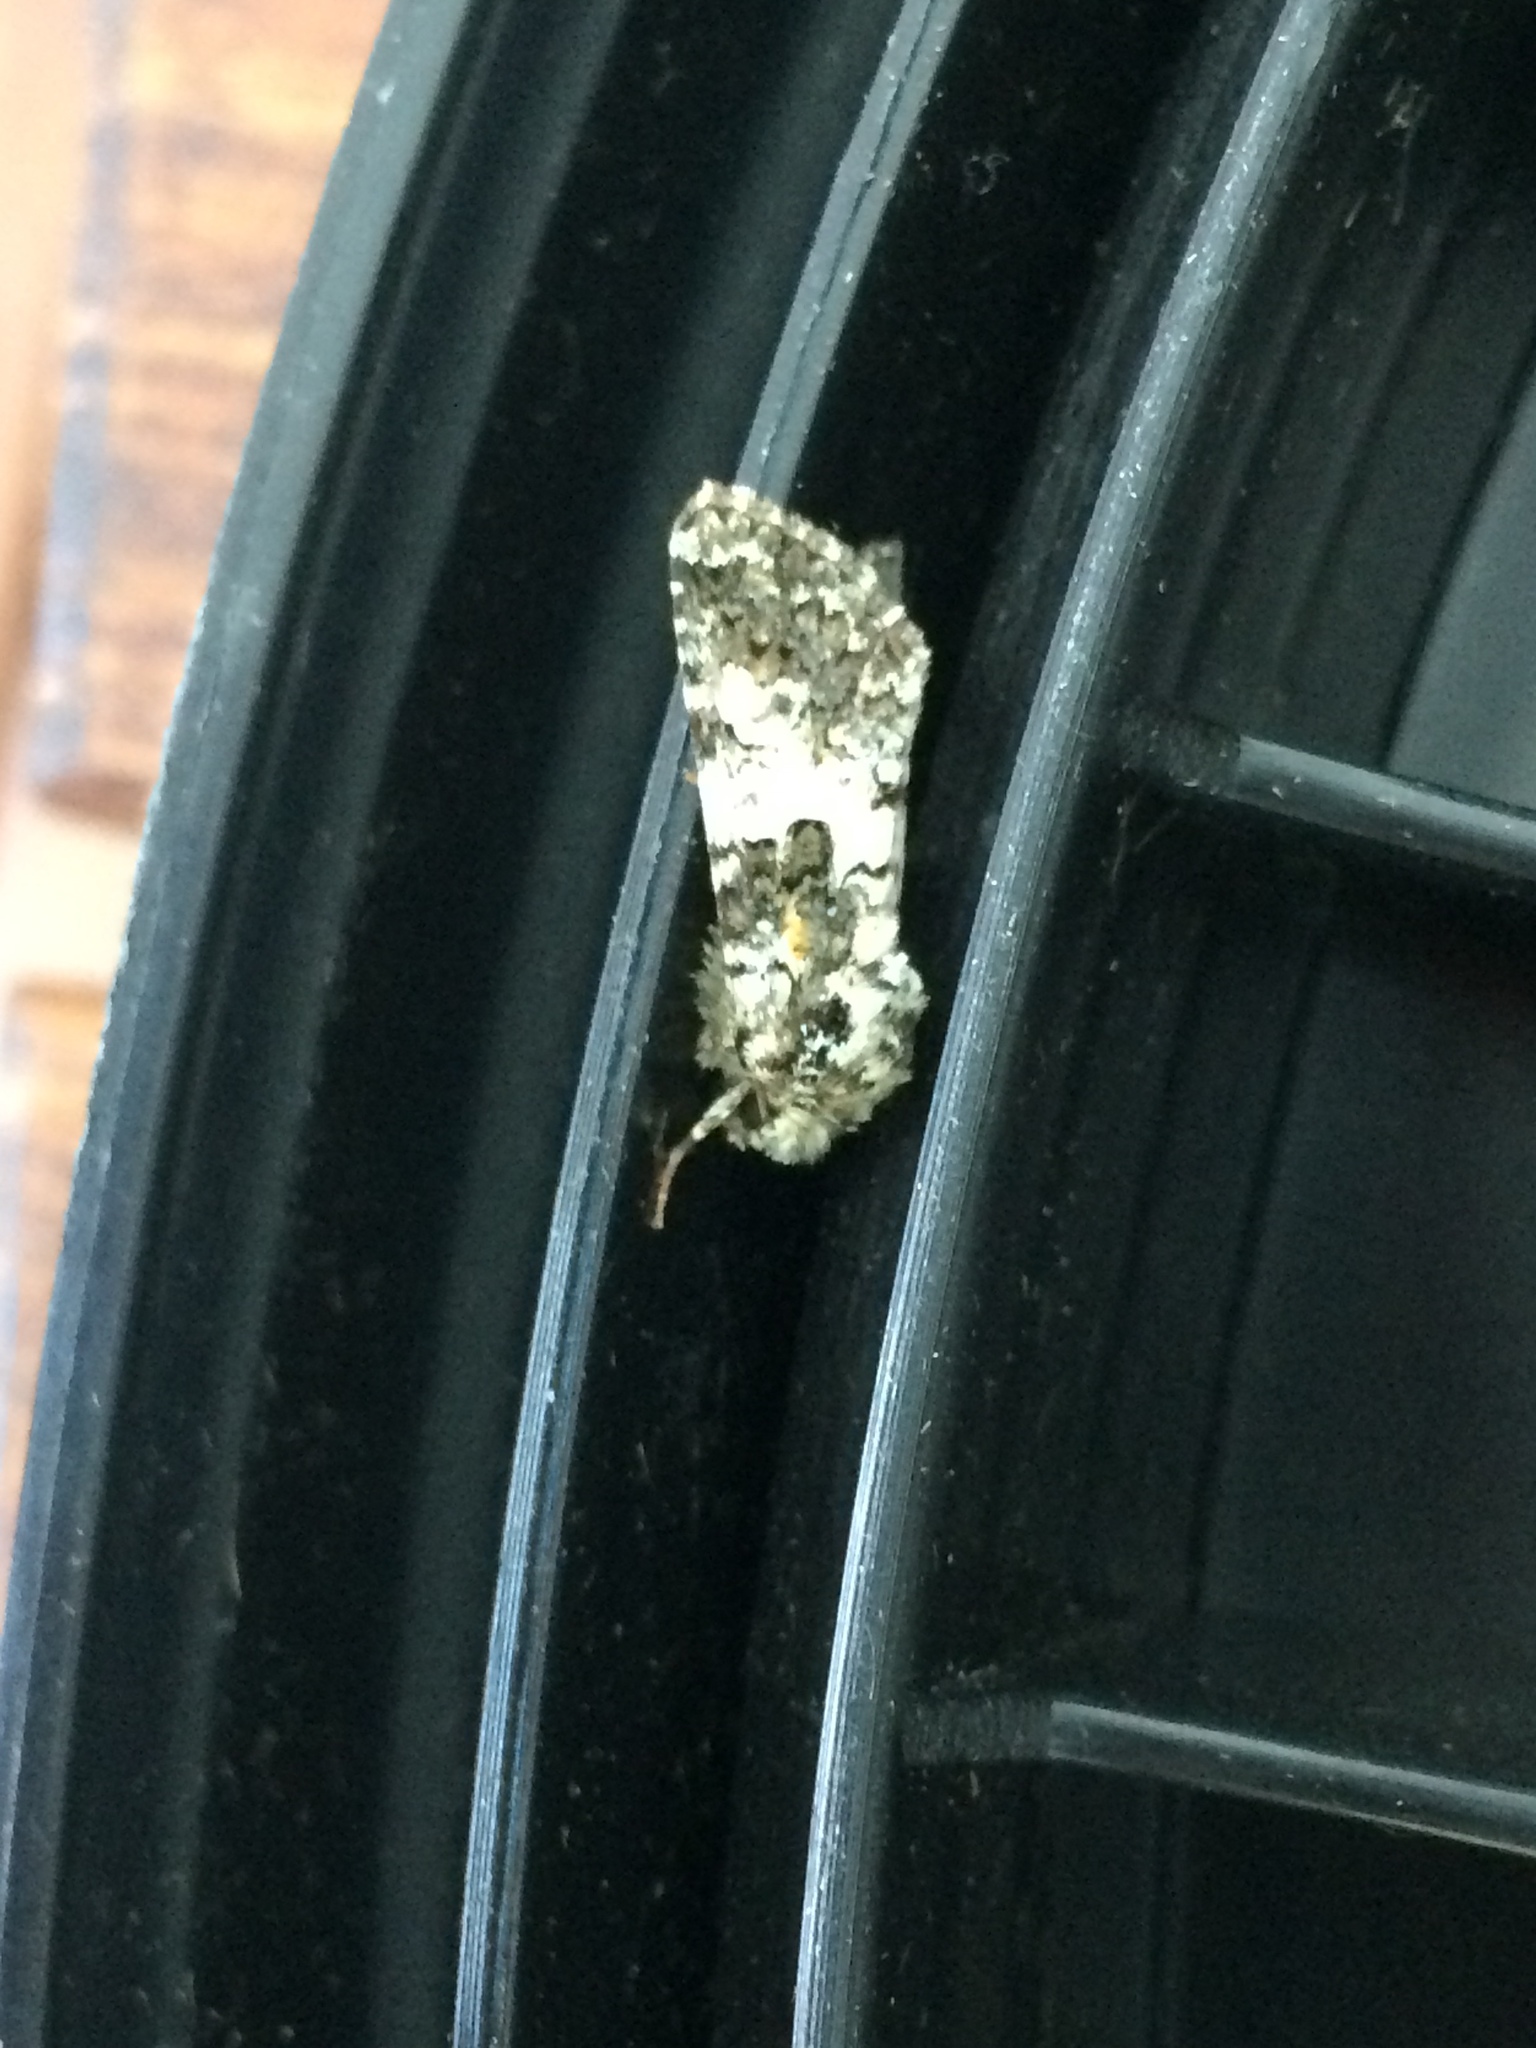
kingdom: Animalia
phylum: Arthropoda
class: Insecta
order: Lepidoptera
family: Noctuidae
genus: Hadena
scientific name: Hadena compta
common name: Varied coronet
